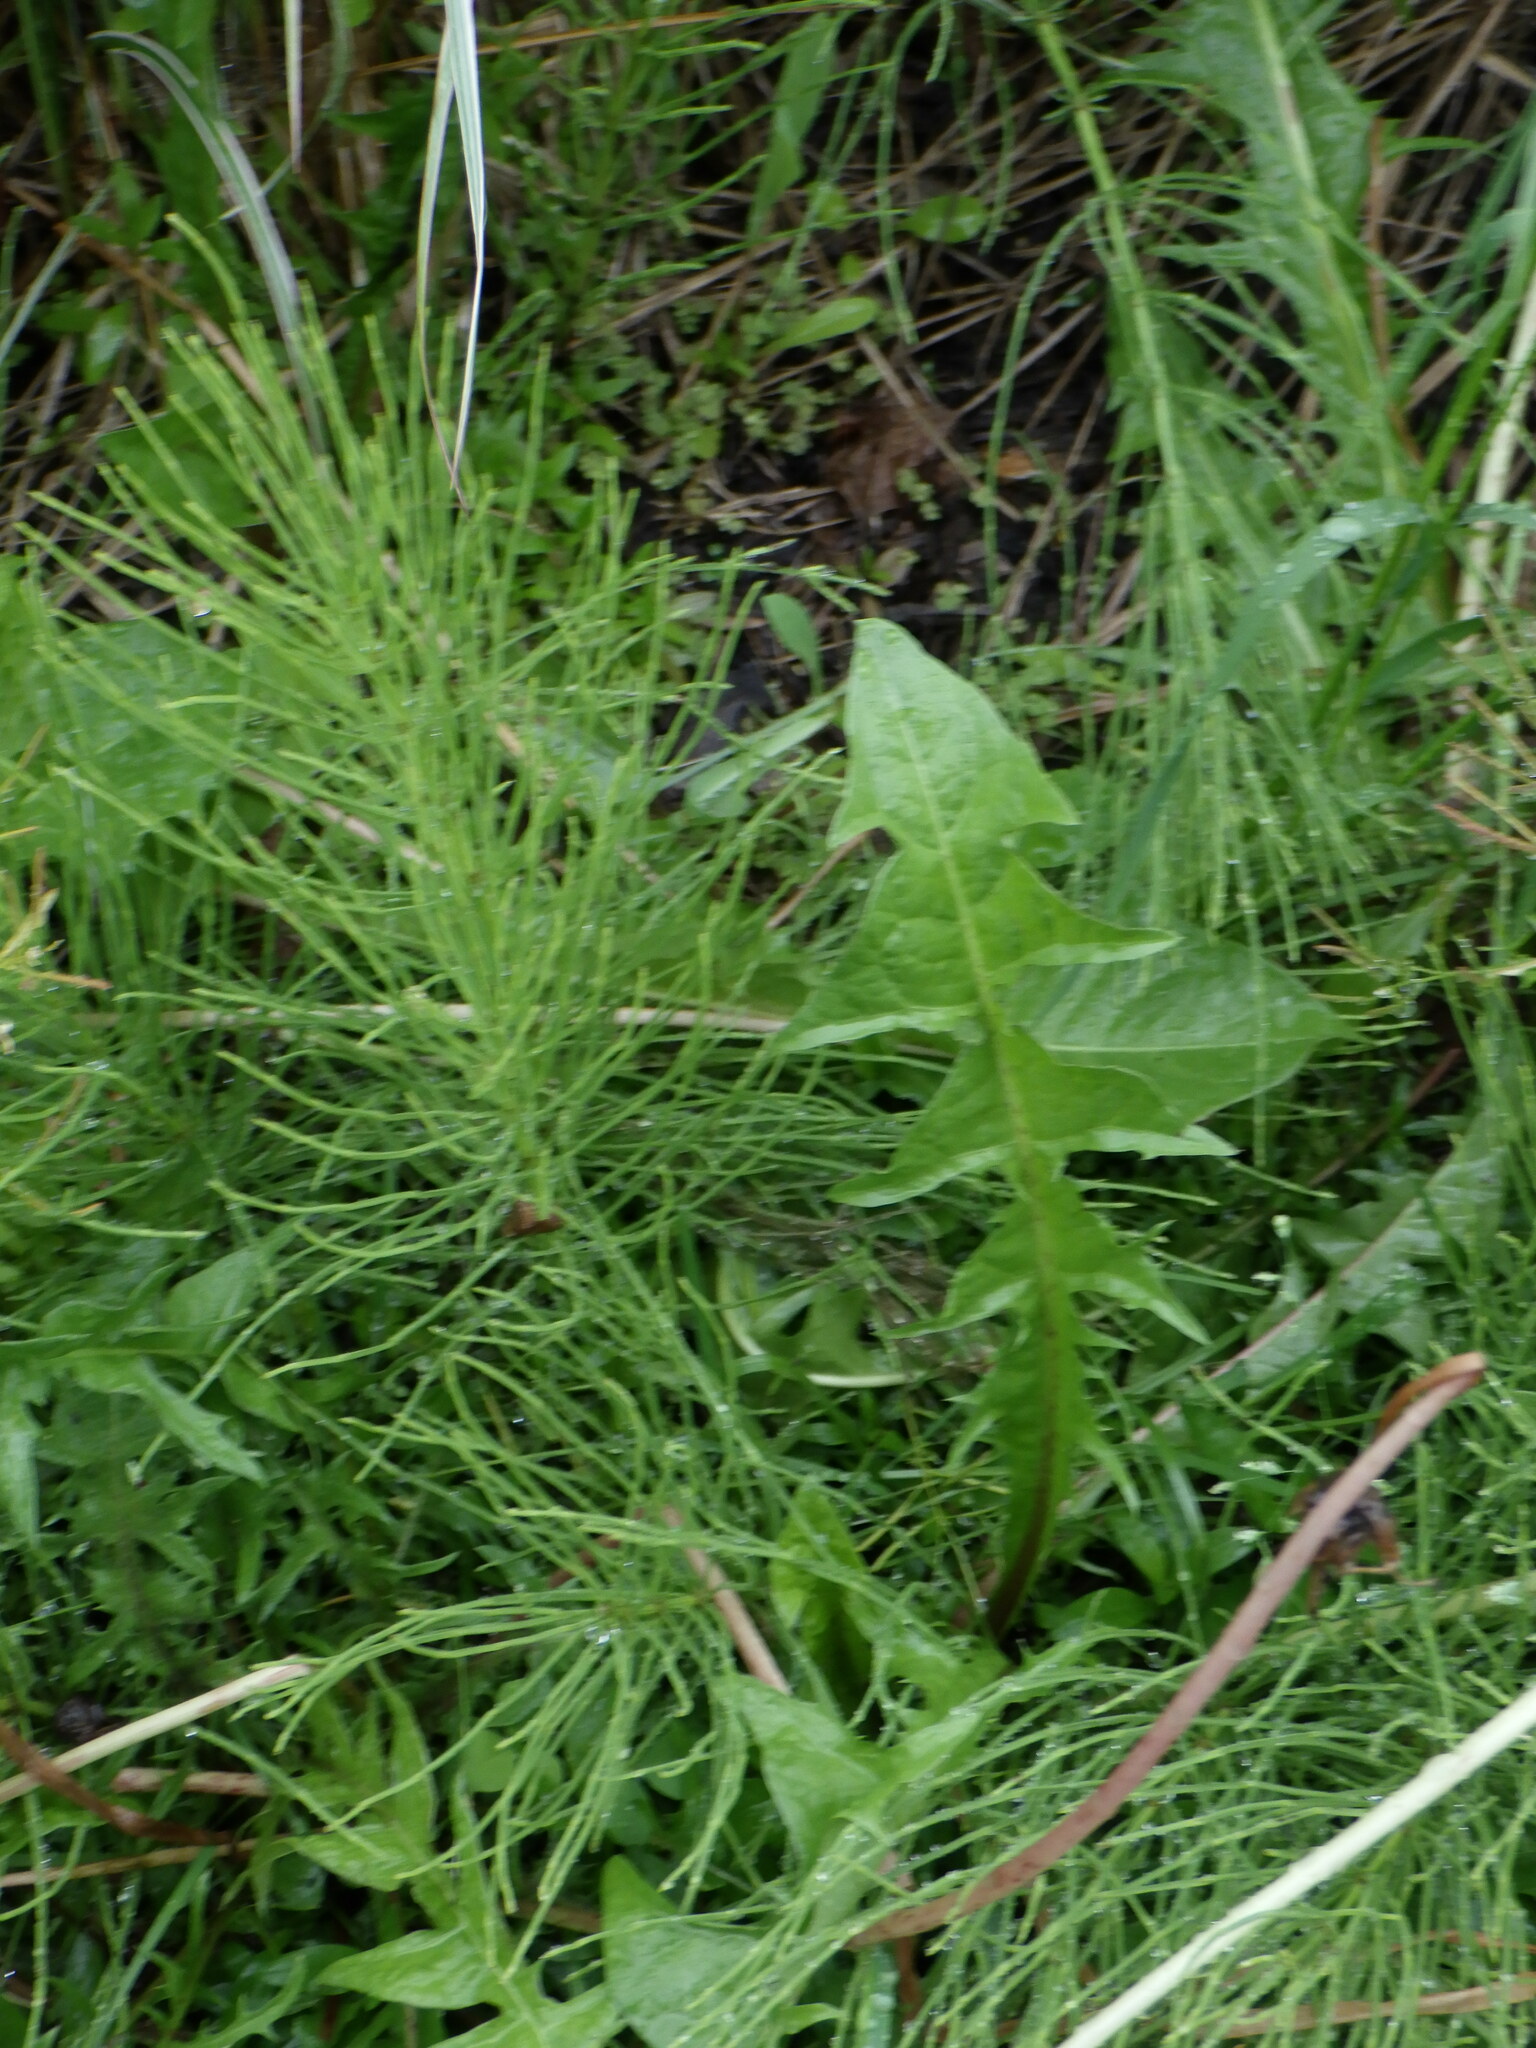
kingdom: Plantae
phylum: Tracheophyta
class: Polypodiopsida
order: Equisetales
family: Equisetaceae
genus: Equisetum
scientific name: Equisetum arvense
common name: Field horsetail
